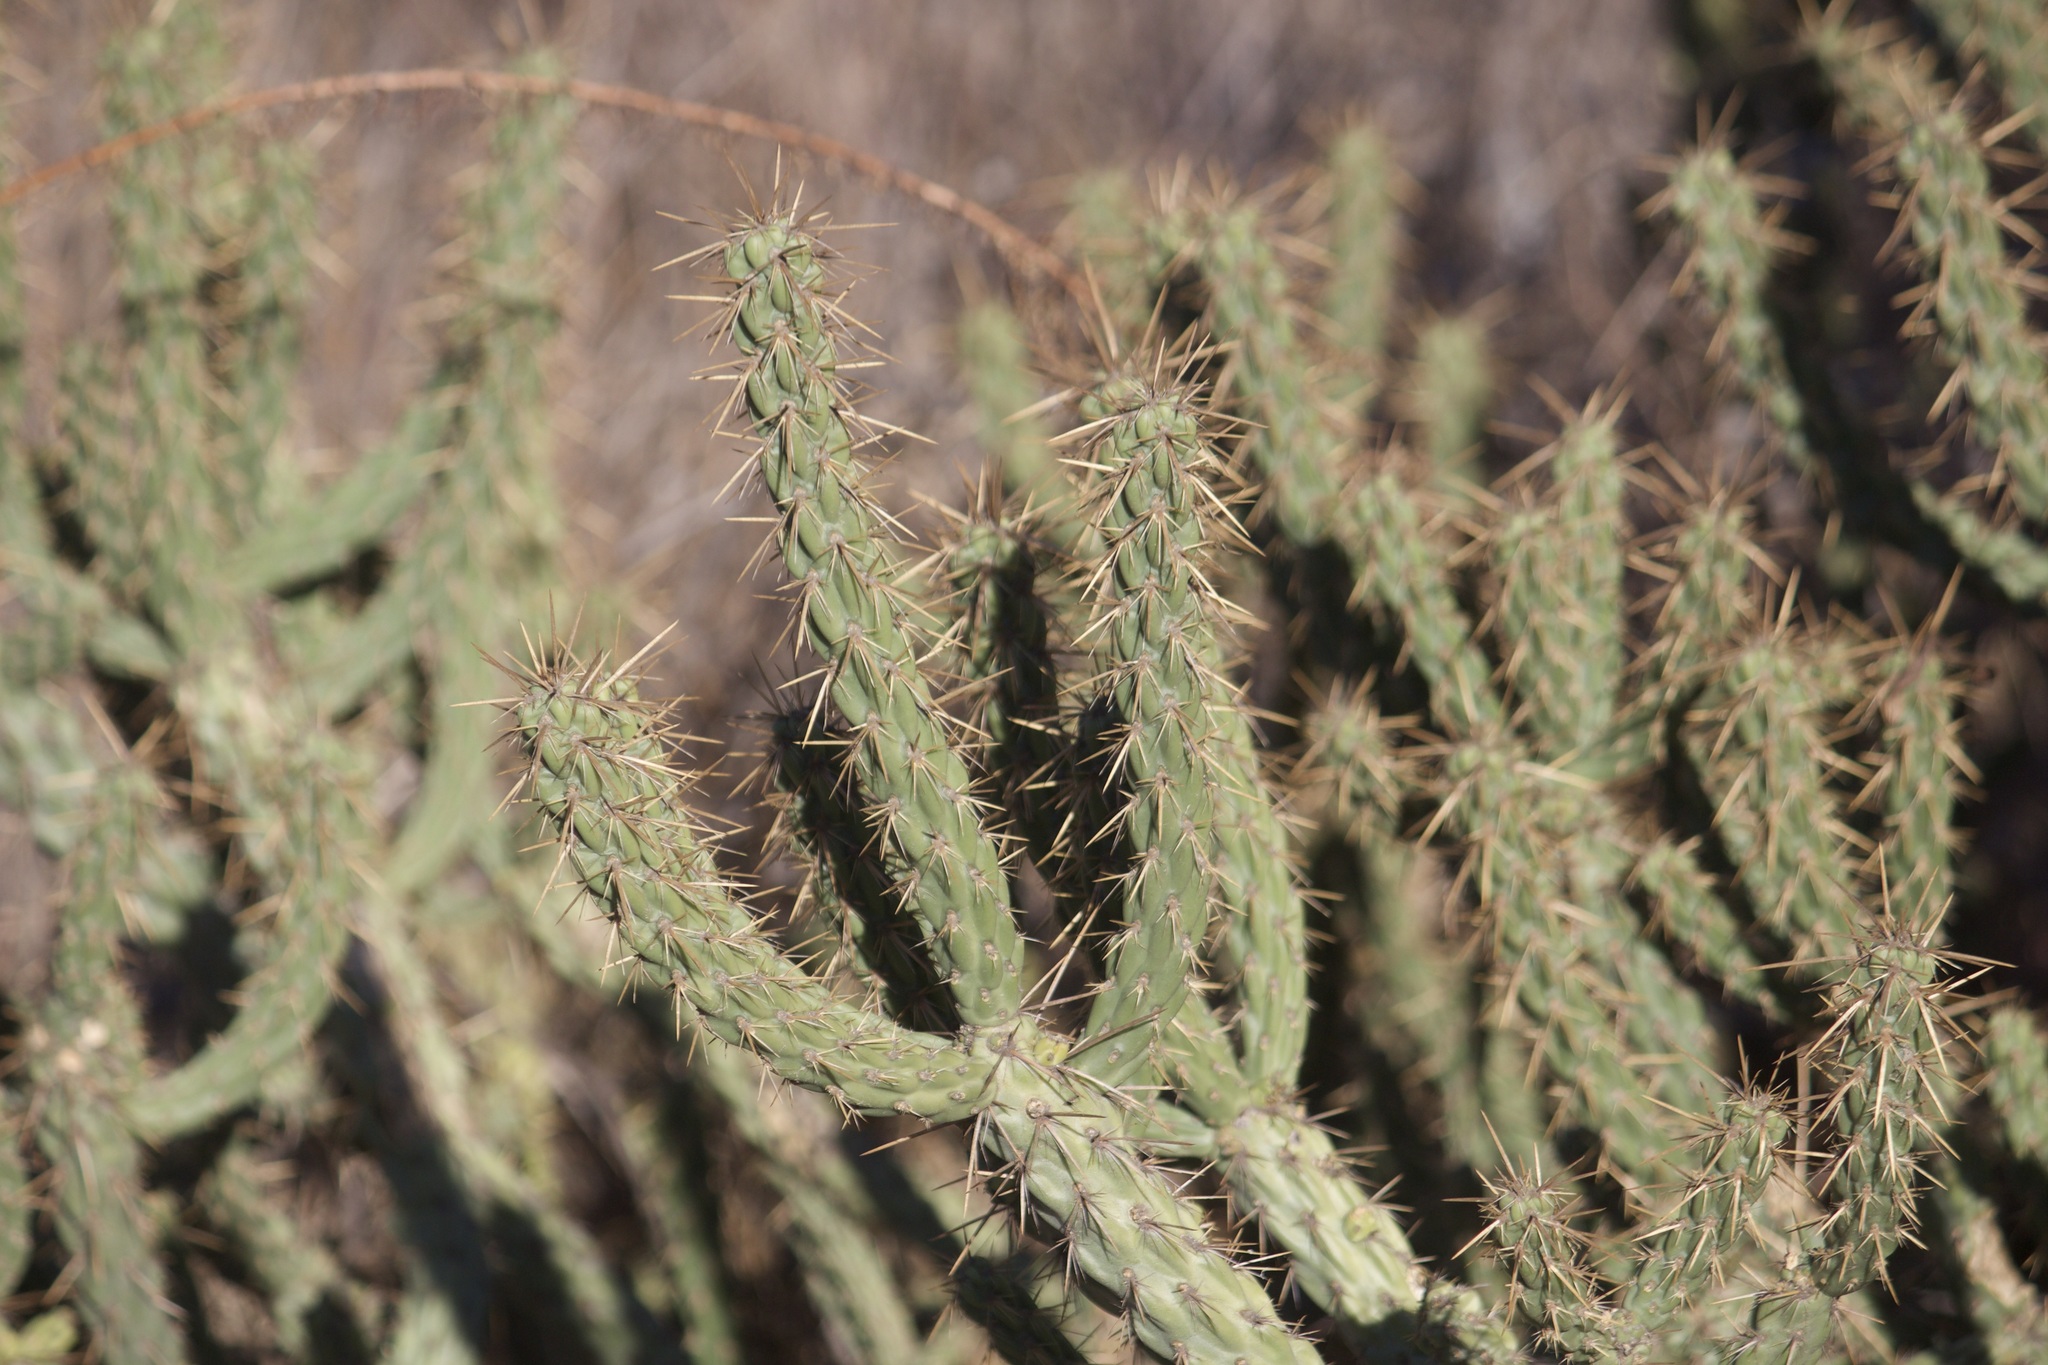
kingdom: Plantae
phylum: Tracheophyta
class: Magnoliopsida
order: Caryophyllales
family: Cactaceae
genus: Cylindropuntia
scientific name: Cylindropuntia bernardina
